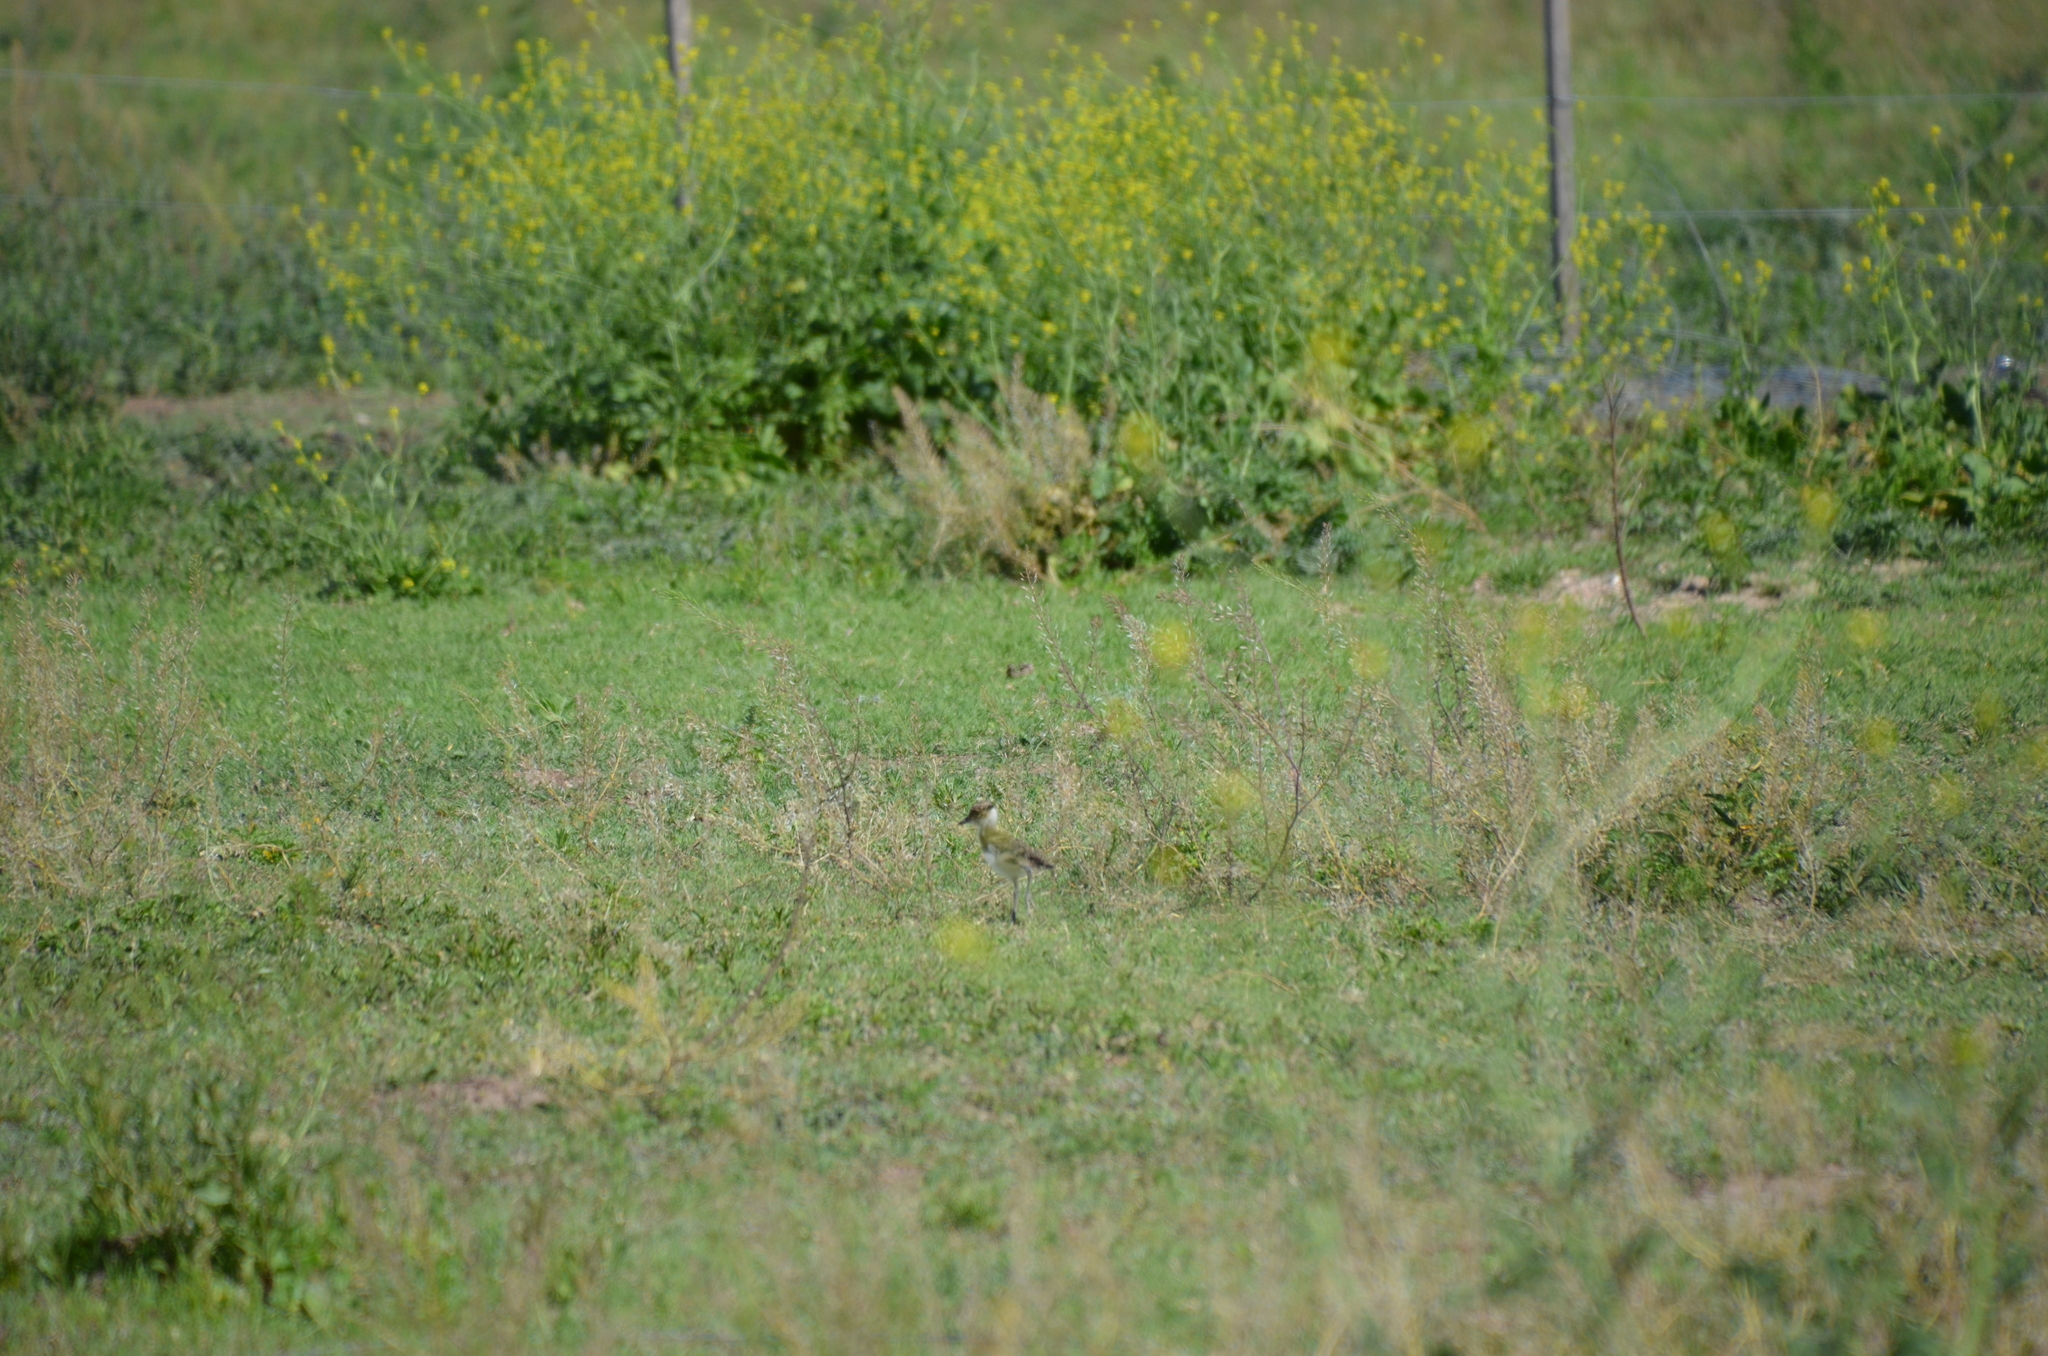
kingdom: Animalia
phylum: Chordata
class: Aves
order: Charadriiformes
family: Charadriidae
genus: Vanellus
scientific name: Vanellus chilensis
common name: Southern lapwing
